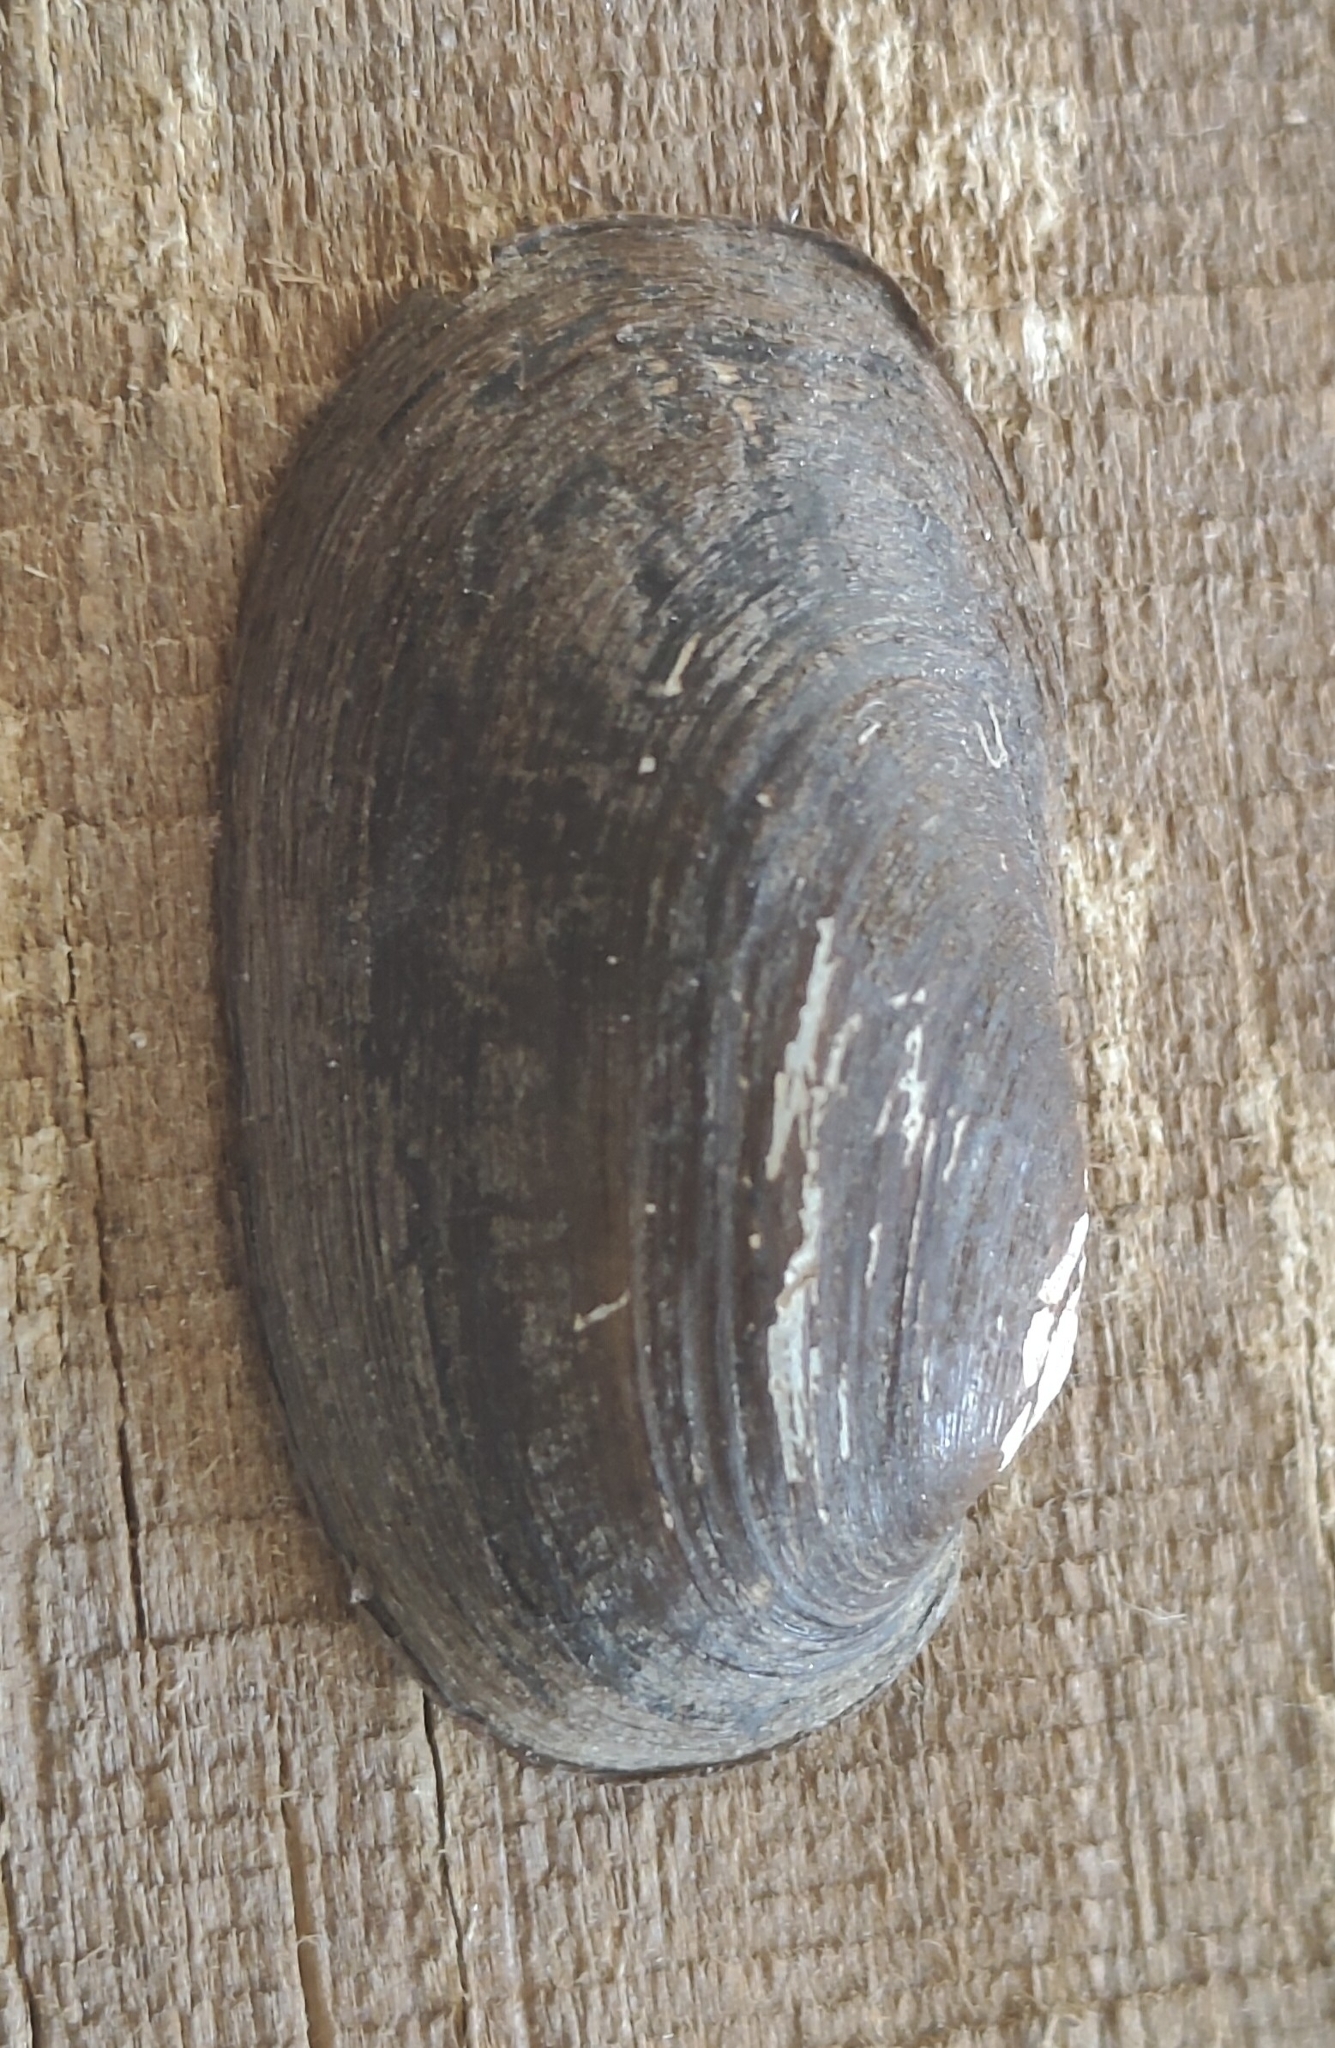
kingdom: Animalia
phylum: Mollusca
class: Bivalvia
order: Unionida
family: Unionidae
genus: Toxolasma
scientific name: Toxolasma parvum
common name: Lilliput
